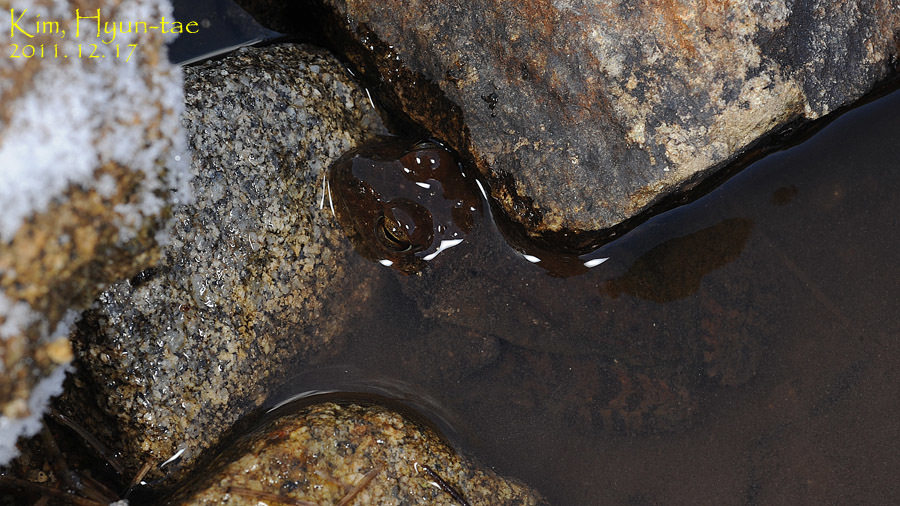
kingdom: Animalia
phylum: Chordata
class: Amphibia
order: Anura
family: Ranidae
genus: Rana
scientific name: Rana uenoi
